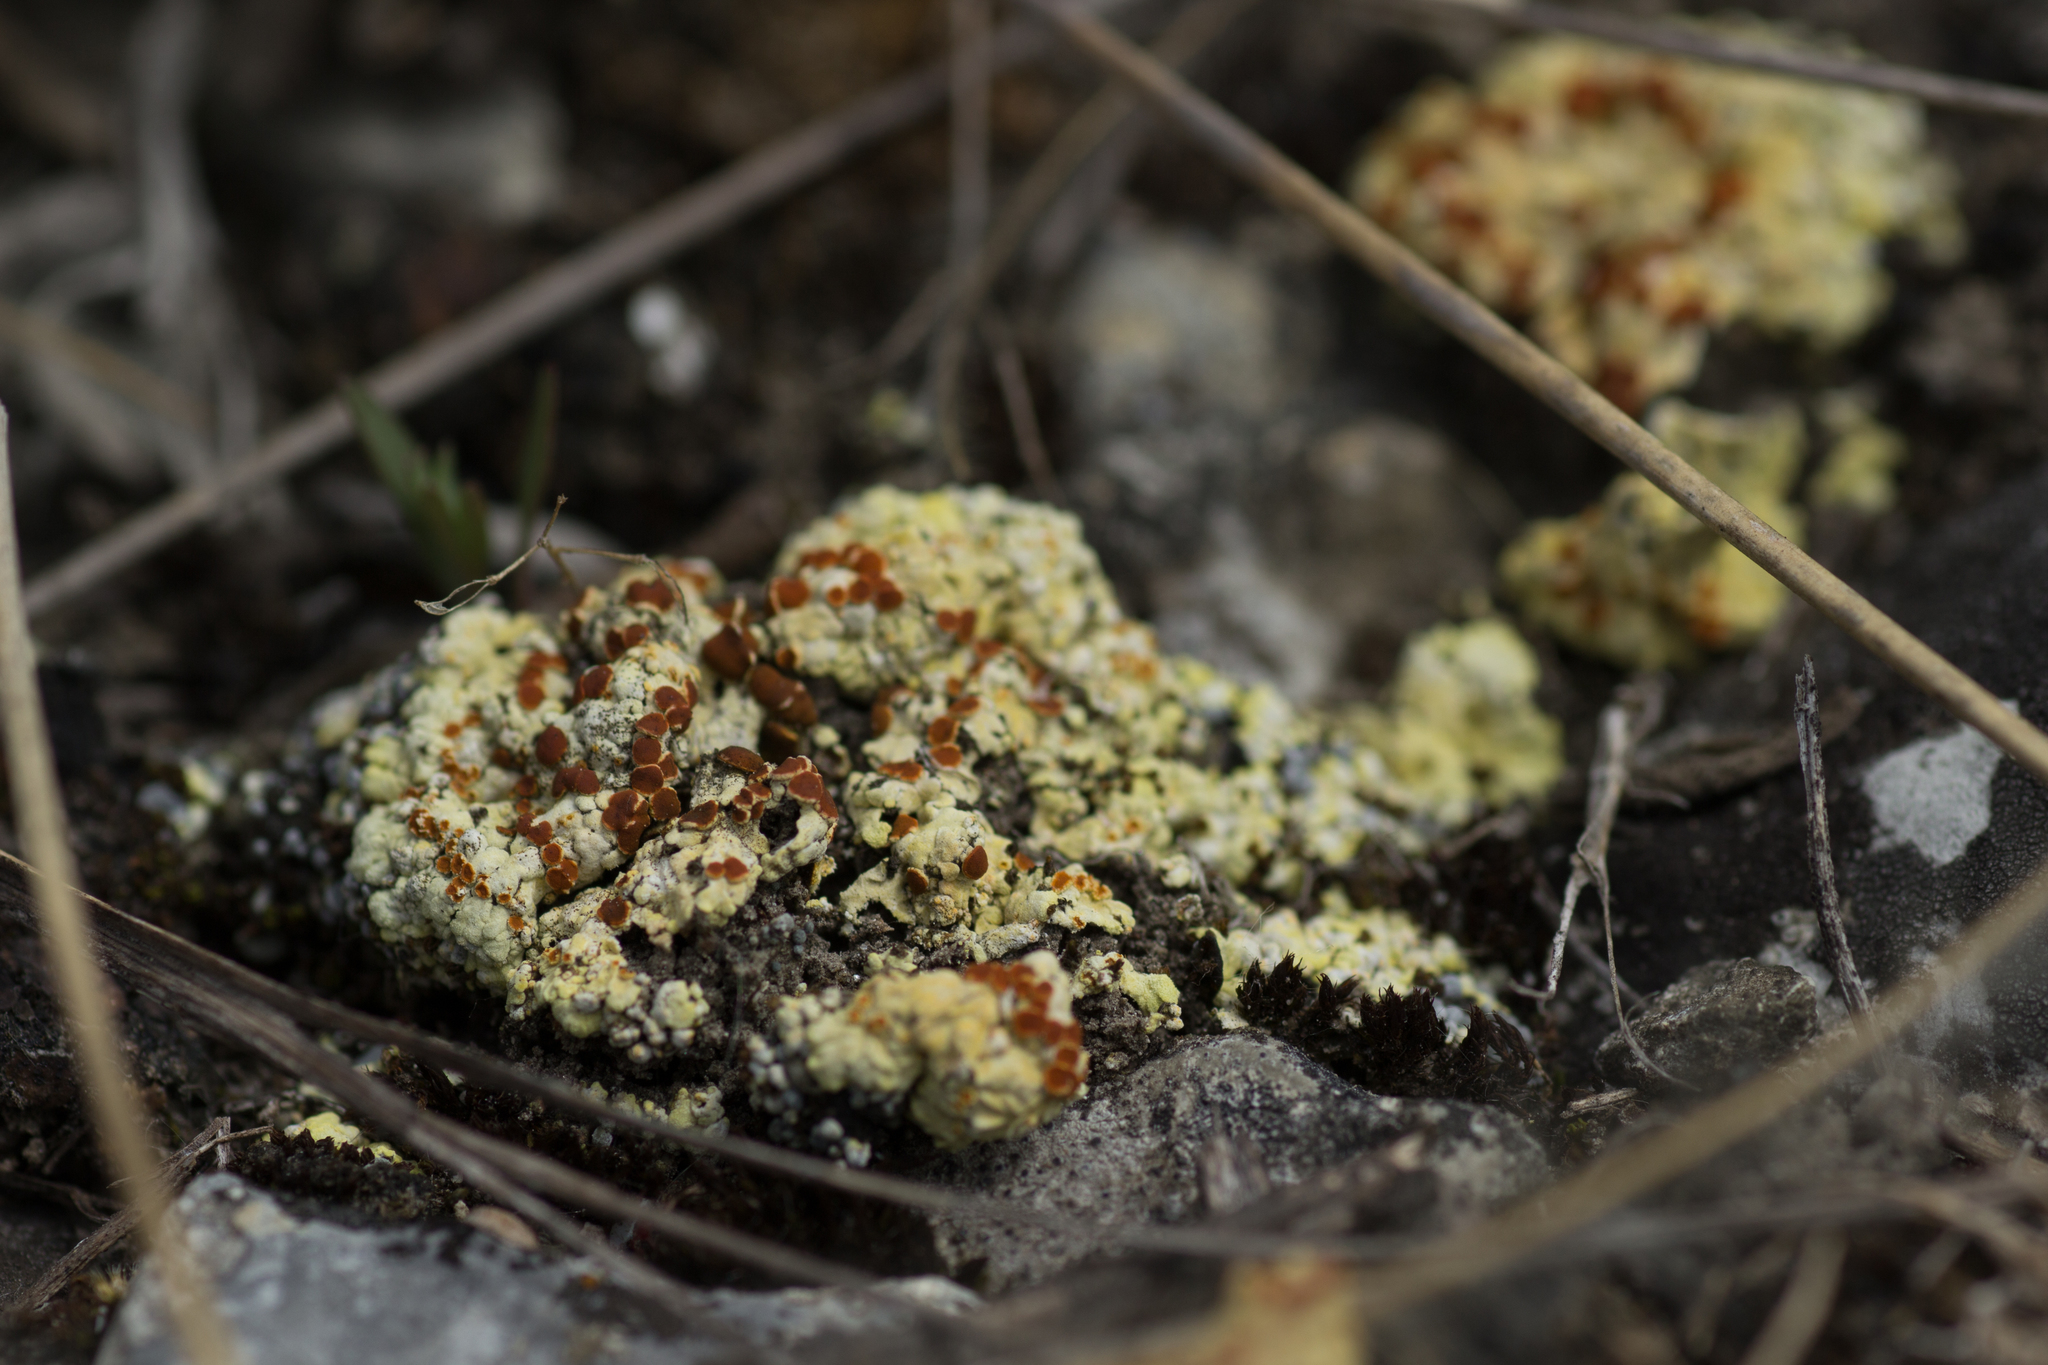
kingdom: Fungi
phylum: Ascomycota
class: Lecanoromycetes
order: Teloschistales
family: Teloschistaceae
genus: Gyalolechia
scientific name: Gyalolechia fulgens
